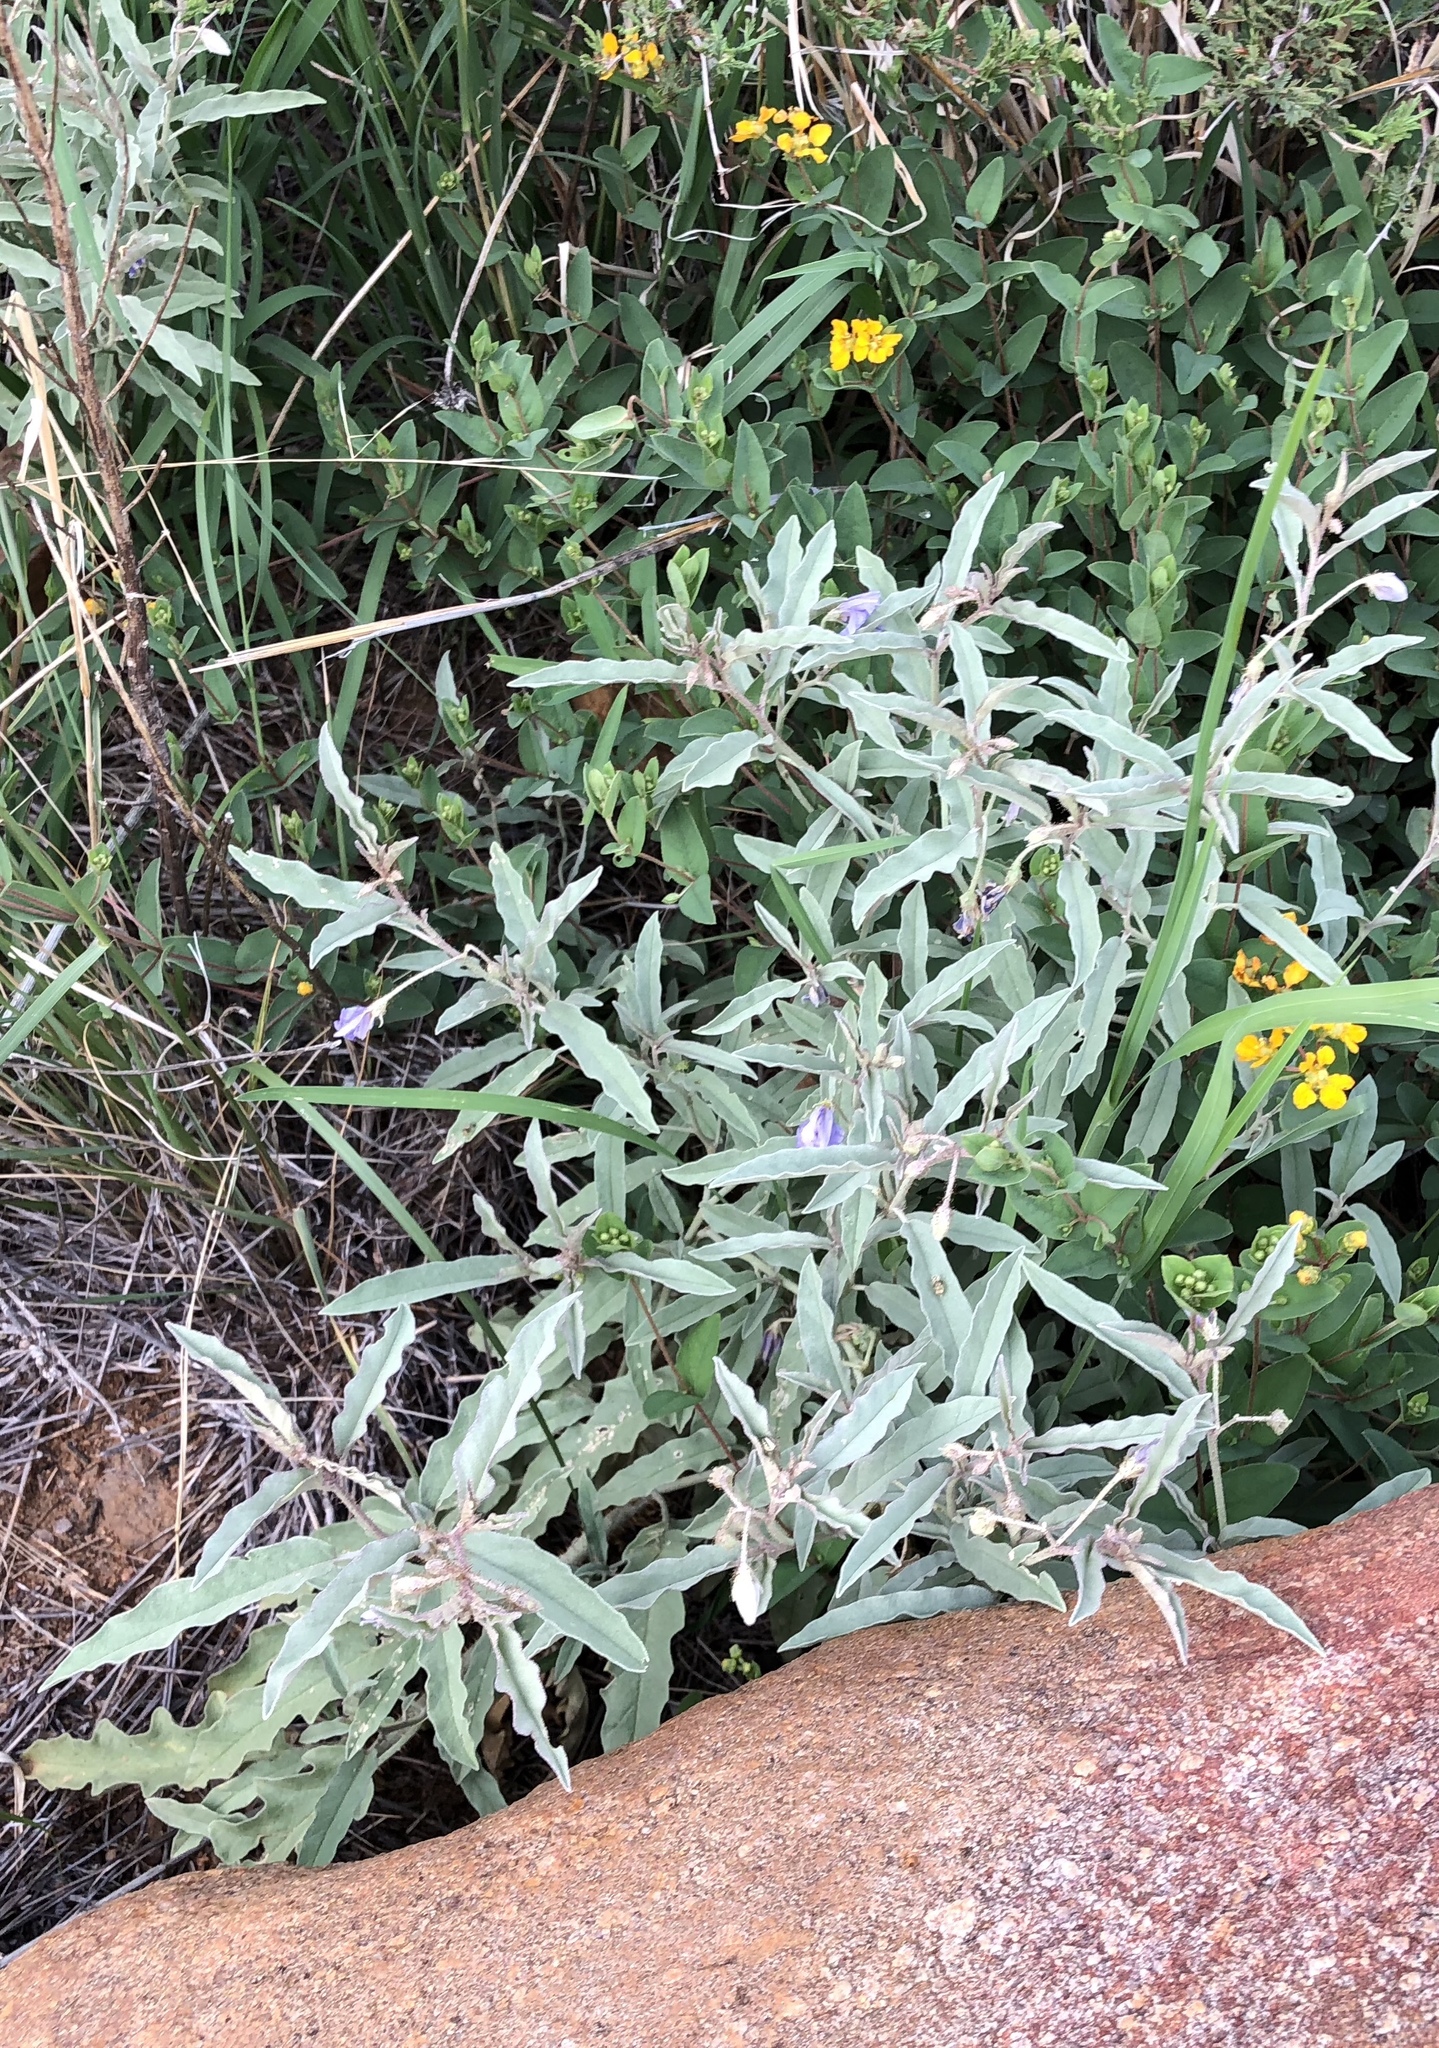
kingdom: Plantae
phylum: Tracheophyta
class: Magnoliopsida
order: Solanales
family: Solanaceae
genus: Solanum
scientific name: Solanum elaeagnifolium
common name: Silverleaf nightshade
